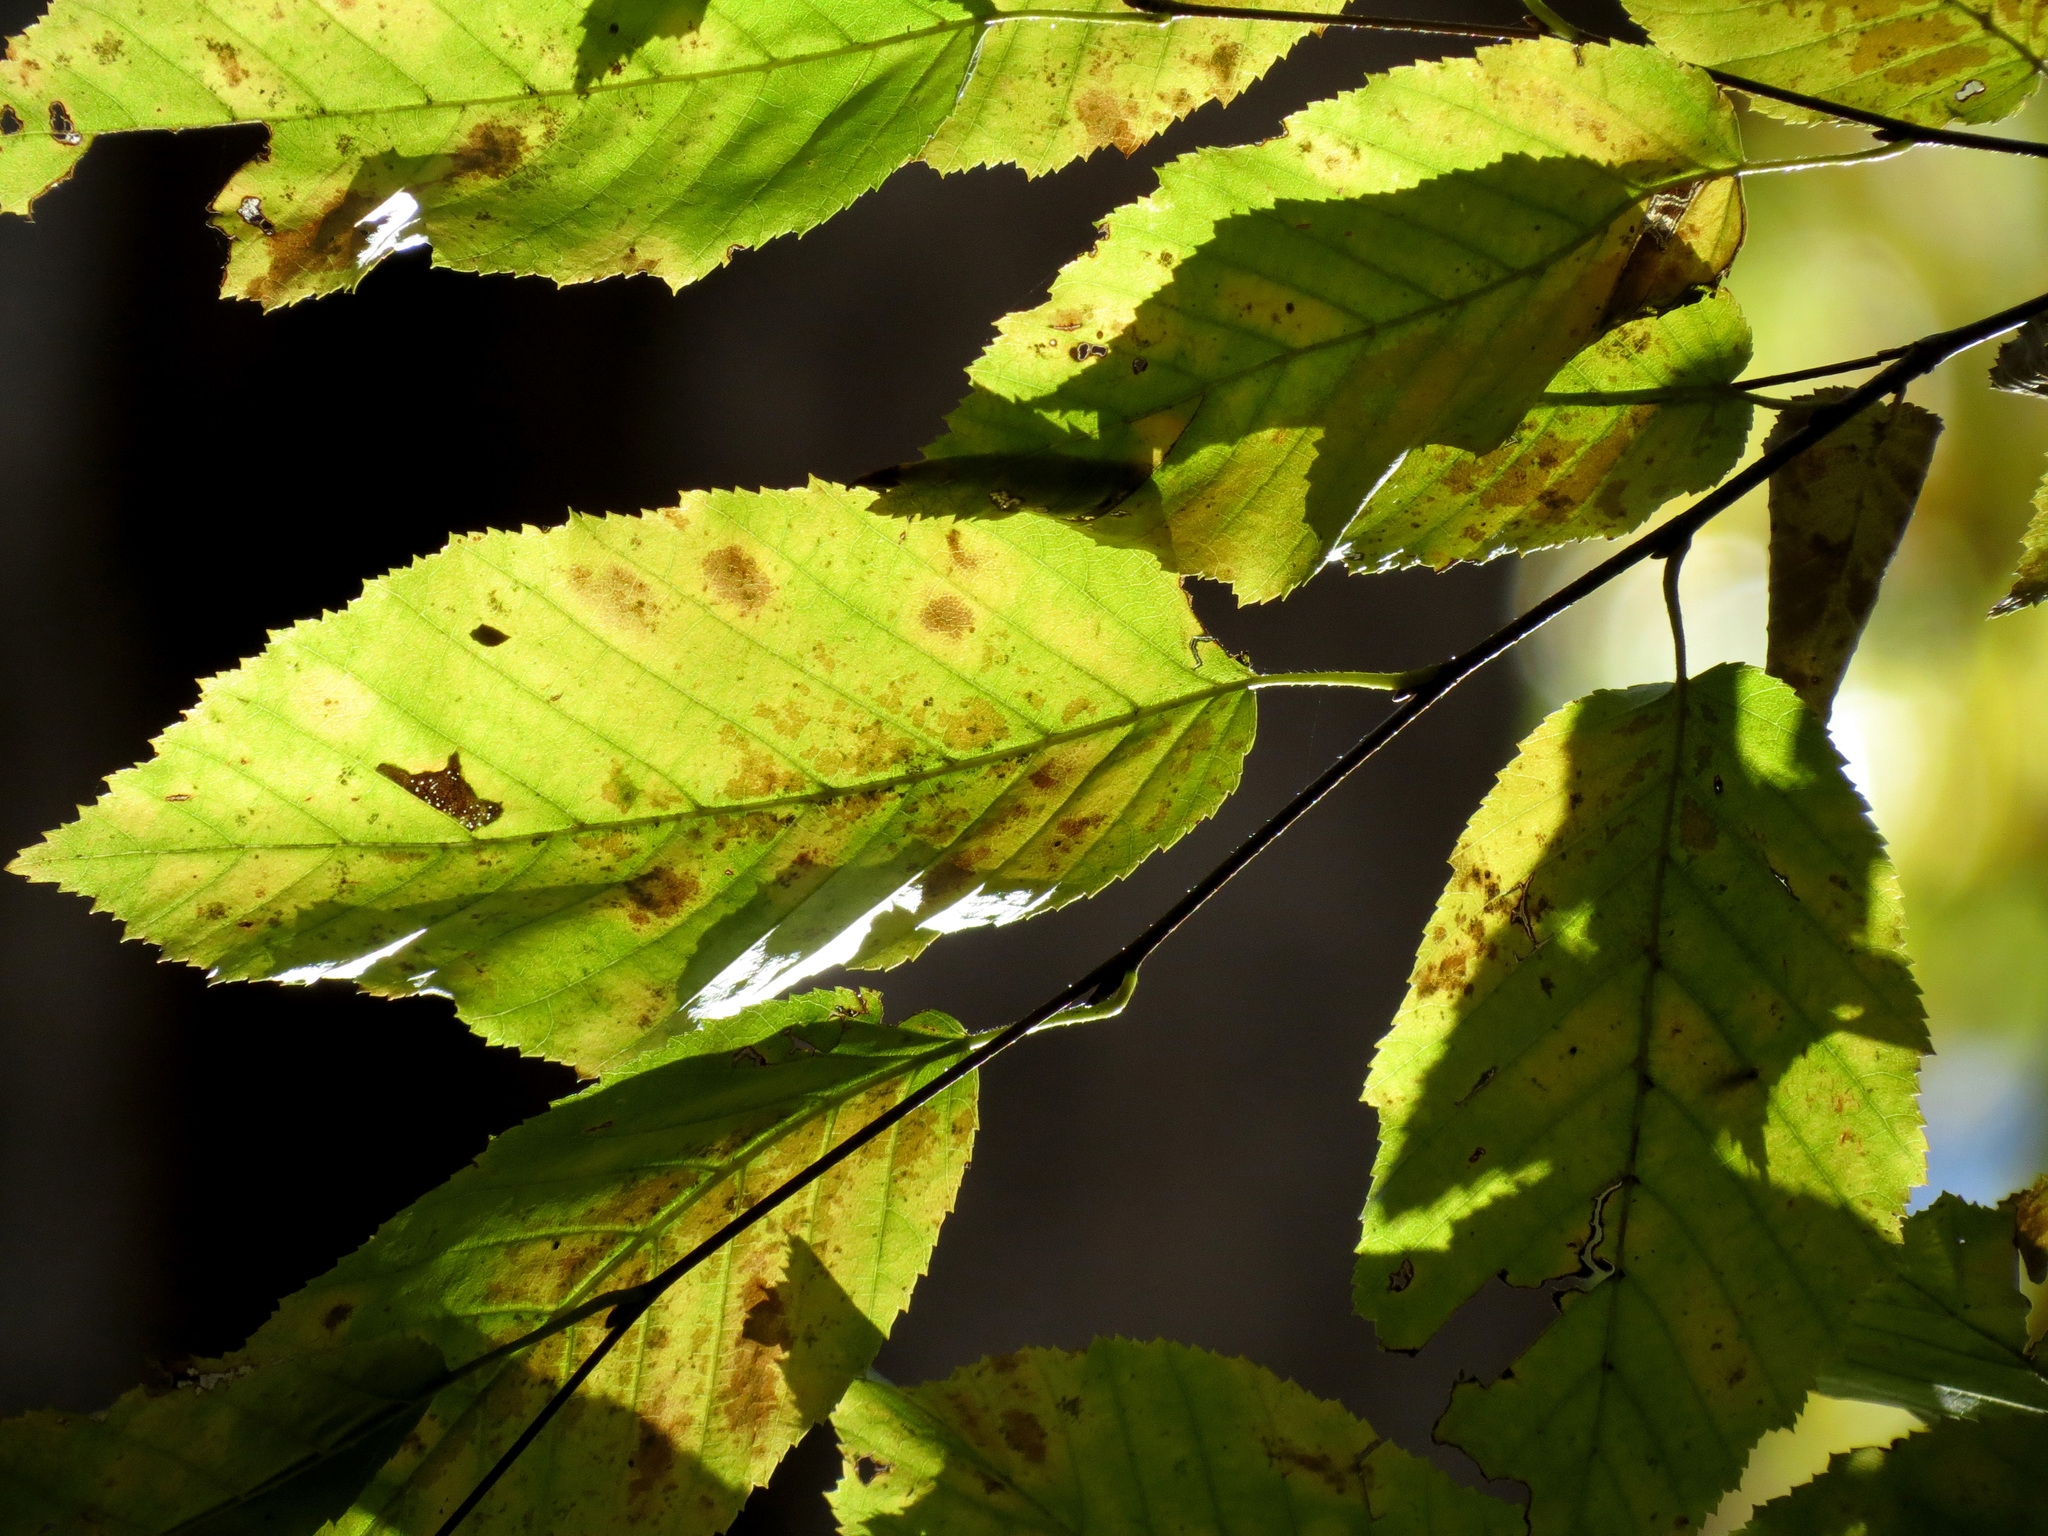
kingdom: Plantae
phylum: Tracheophyta
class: Magnoliopsida
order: Fagales
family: Betulaceae
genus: Carpinus
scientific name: Carpinus caroliniana
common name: American hornbeam
